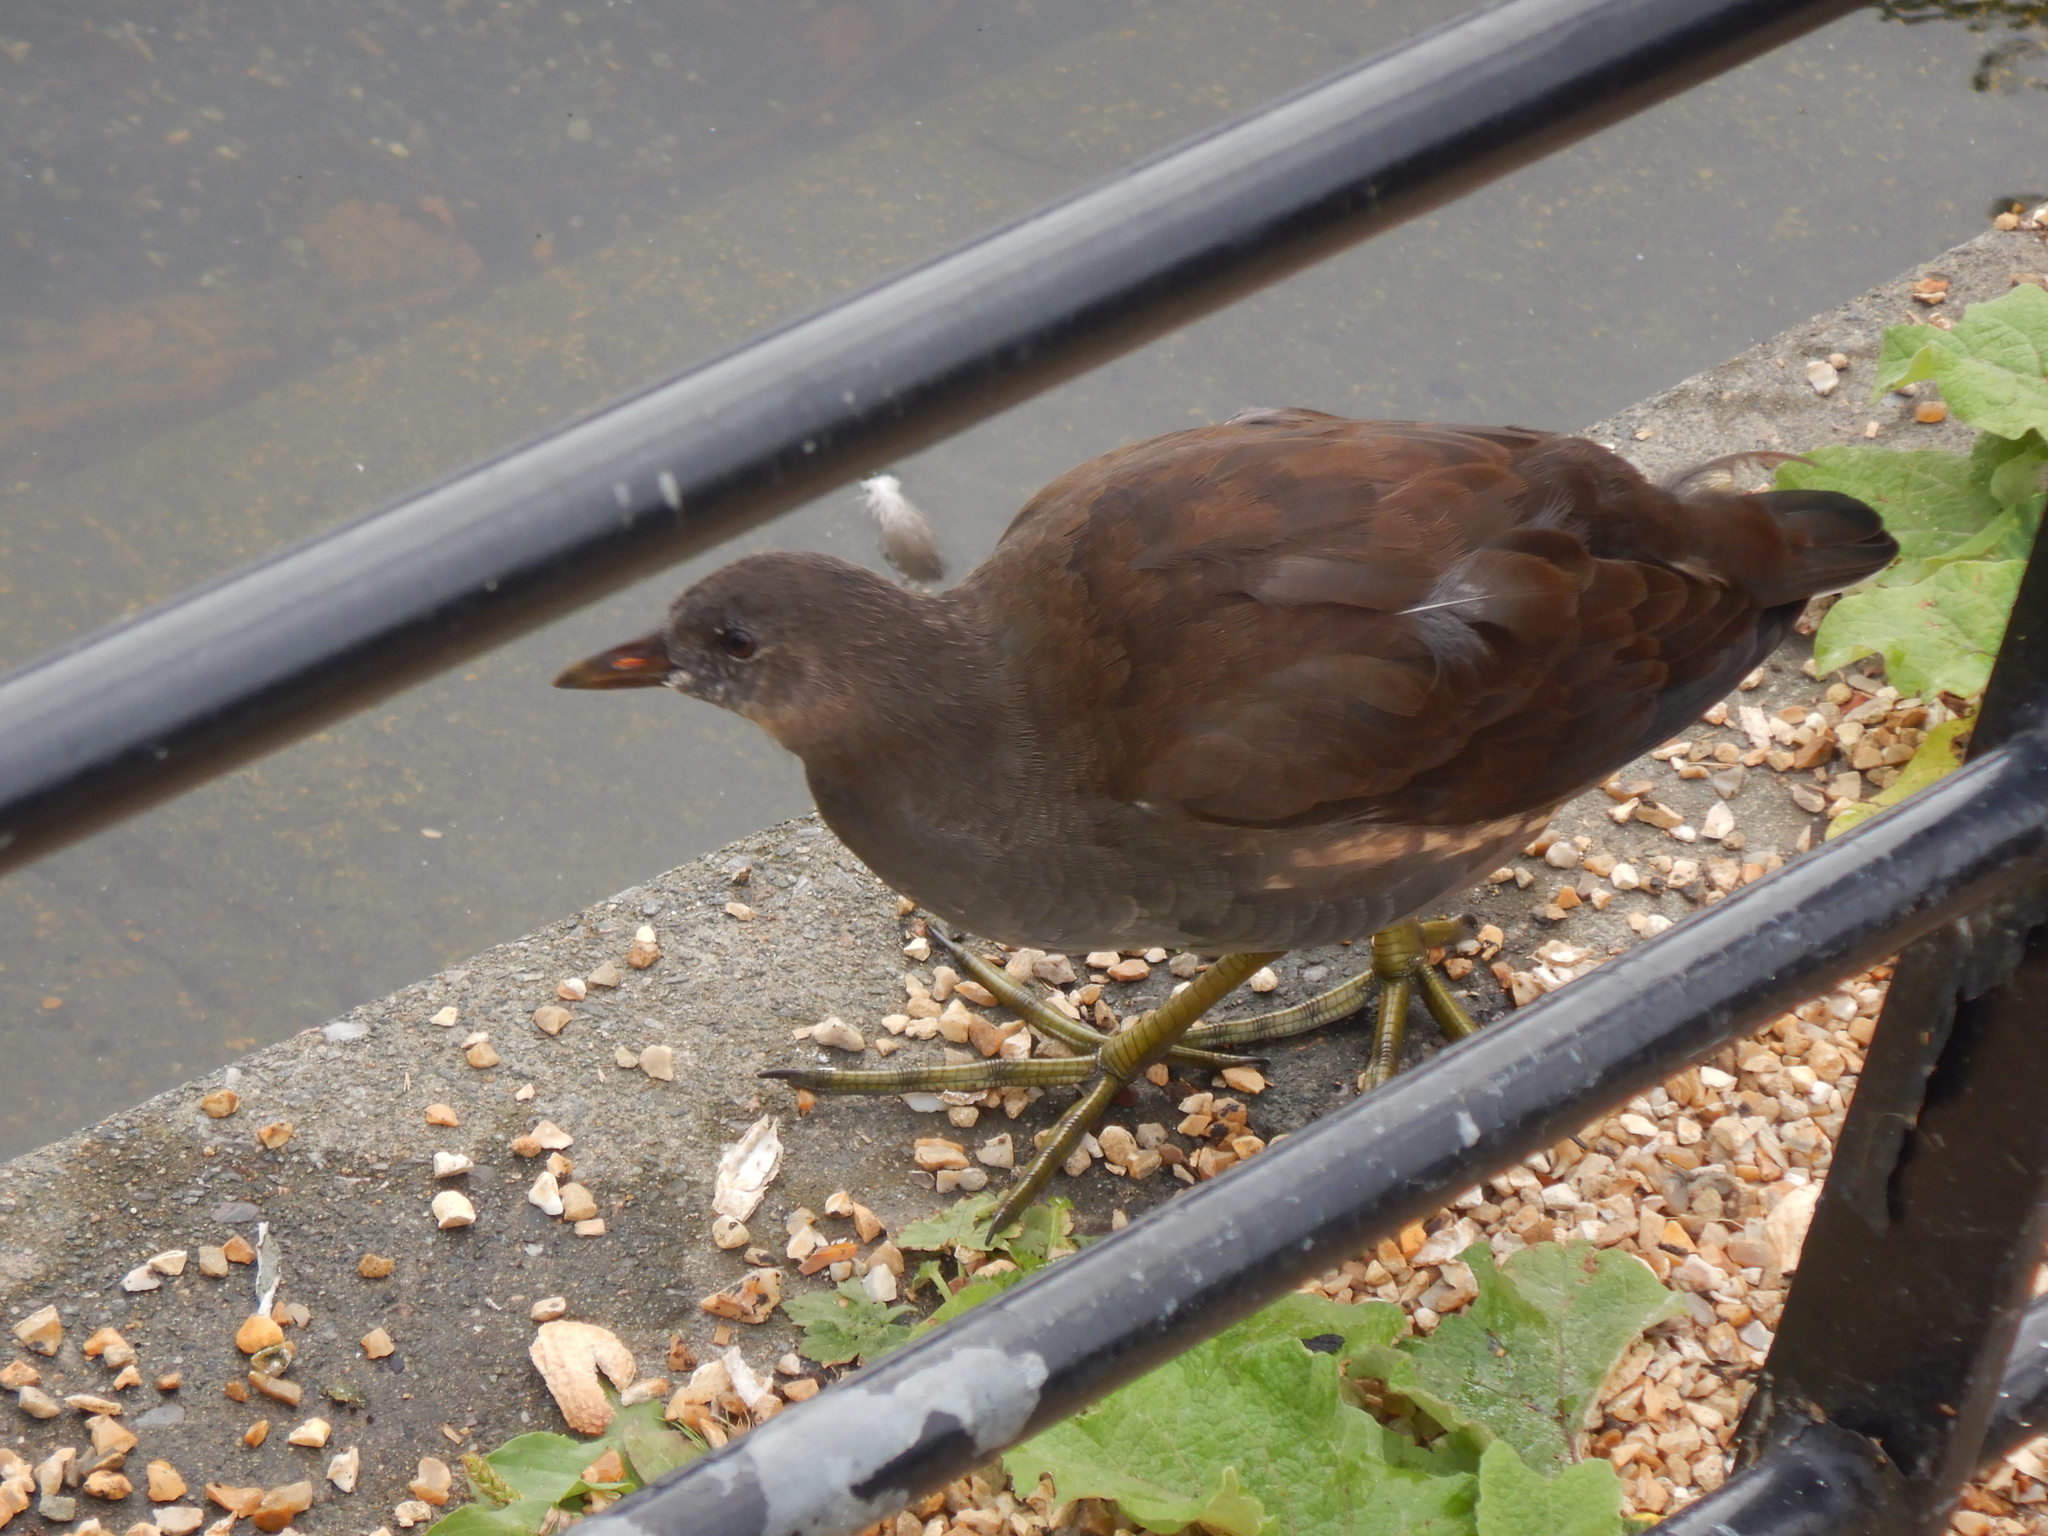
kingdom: Animalia
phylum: Chordata
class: Aves
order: Gruiformes
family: Rallidae
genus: Gallinula
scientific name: Gallinula chloropus
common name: Common moorhen
